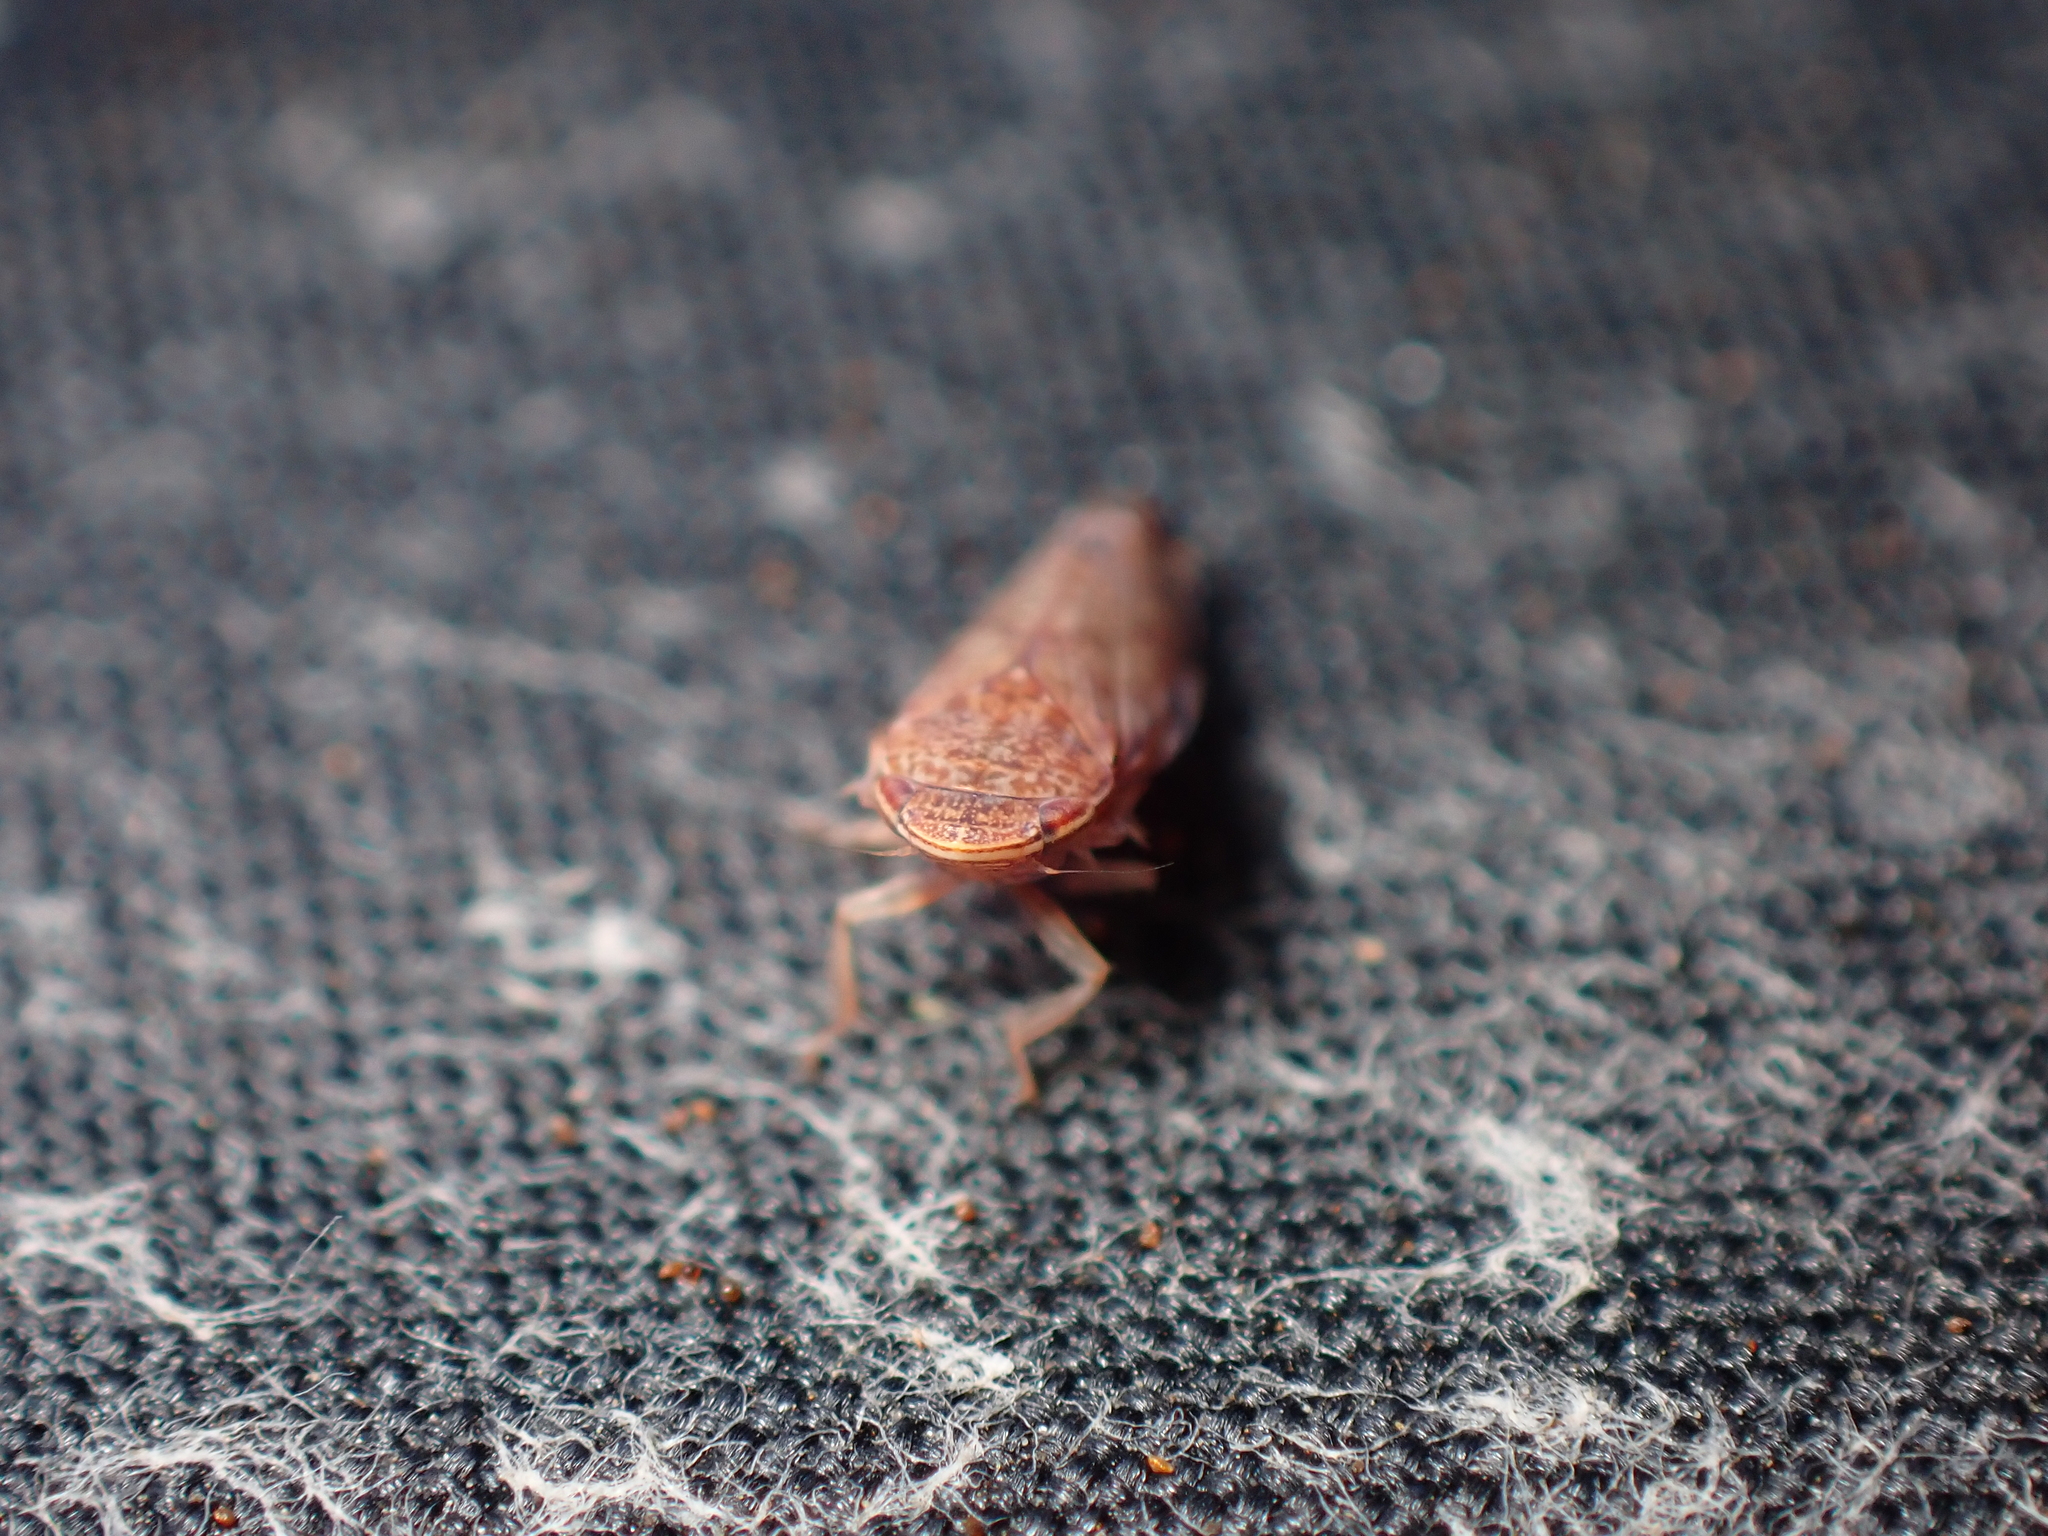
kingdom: Animalia
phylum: Arthropoda
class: Insecta
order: Hemiptera
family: Cicadellidae
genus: Scaphetus
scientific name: Scaphetus brunneus
